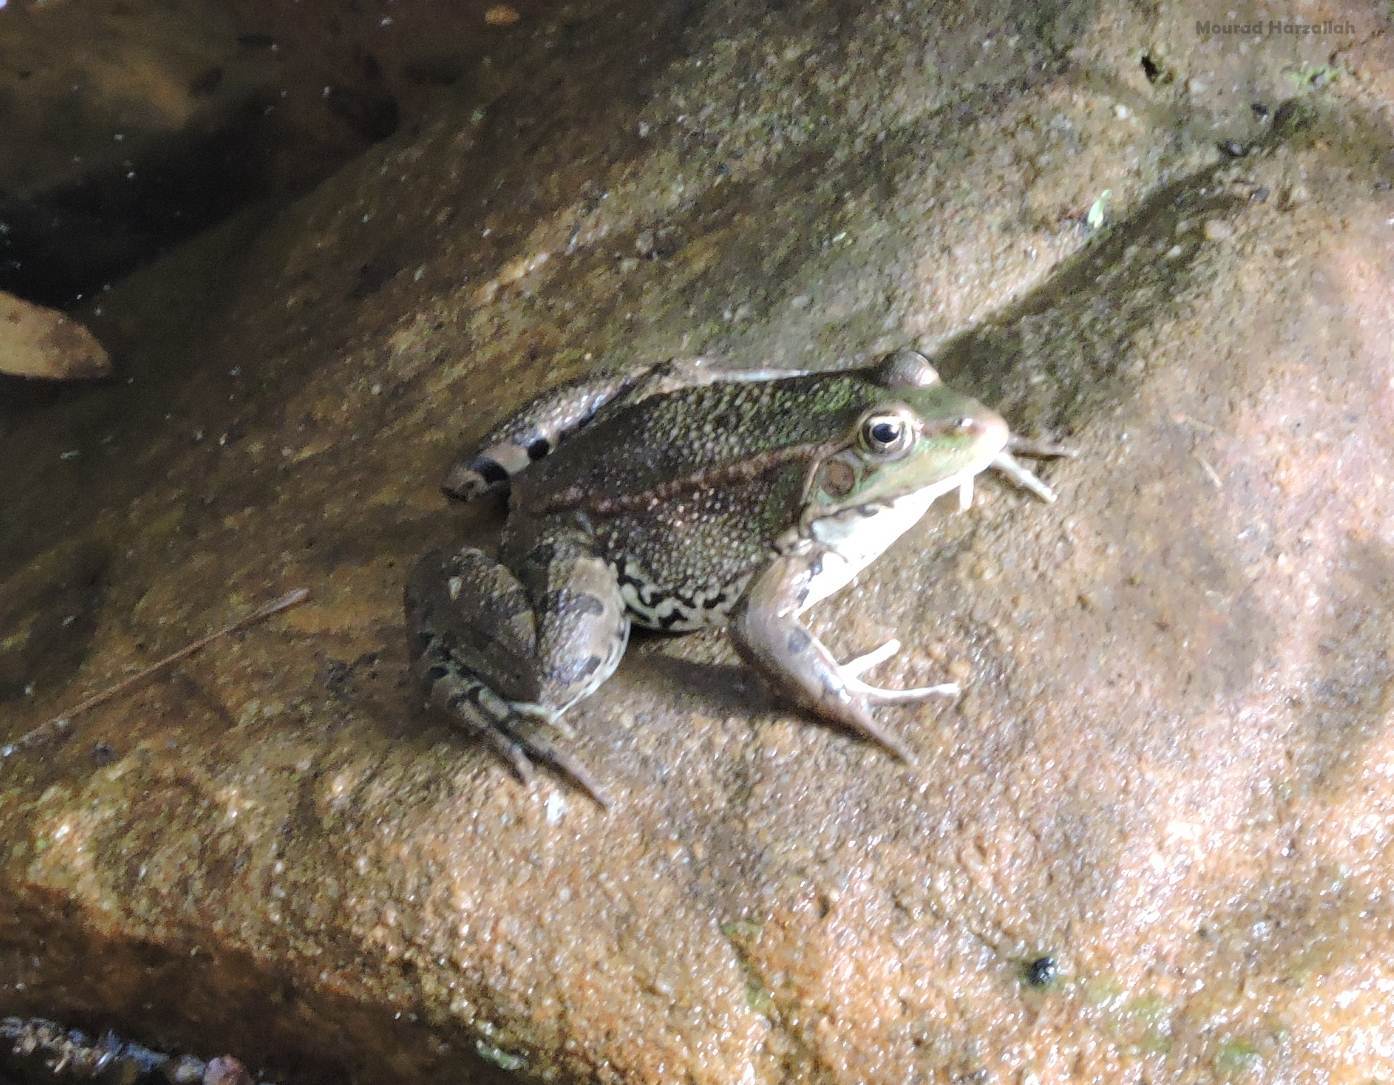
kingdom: Animalia
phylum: Chordata
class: Amphibia
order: Anura
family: Ranidae
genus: Pelophylax
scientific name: Pelophylax saharicus
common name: Sahara frog
